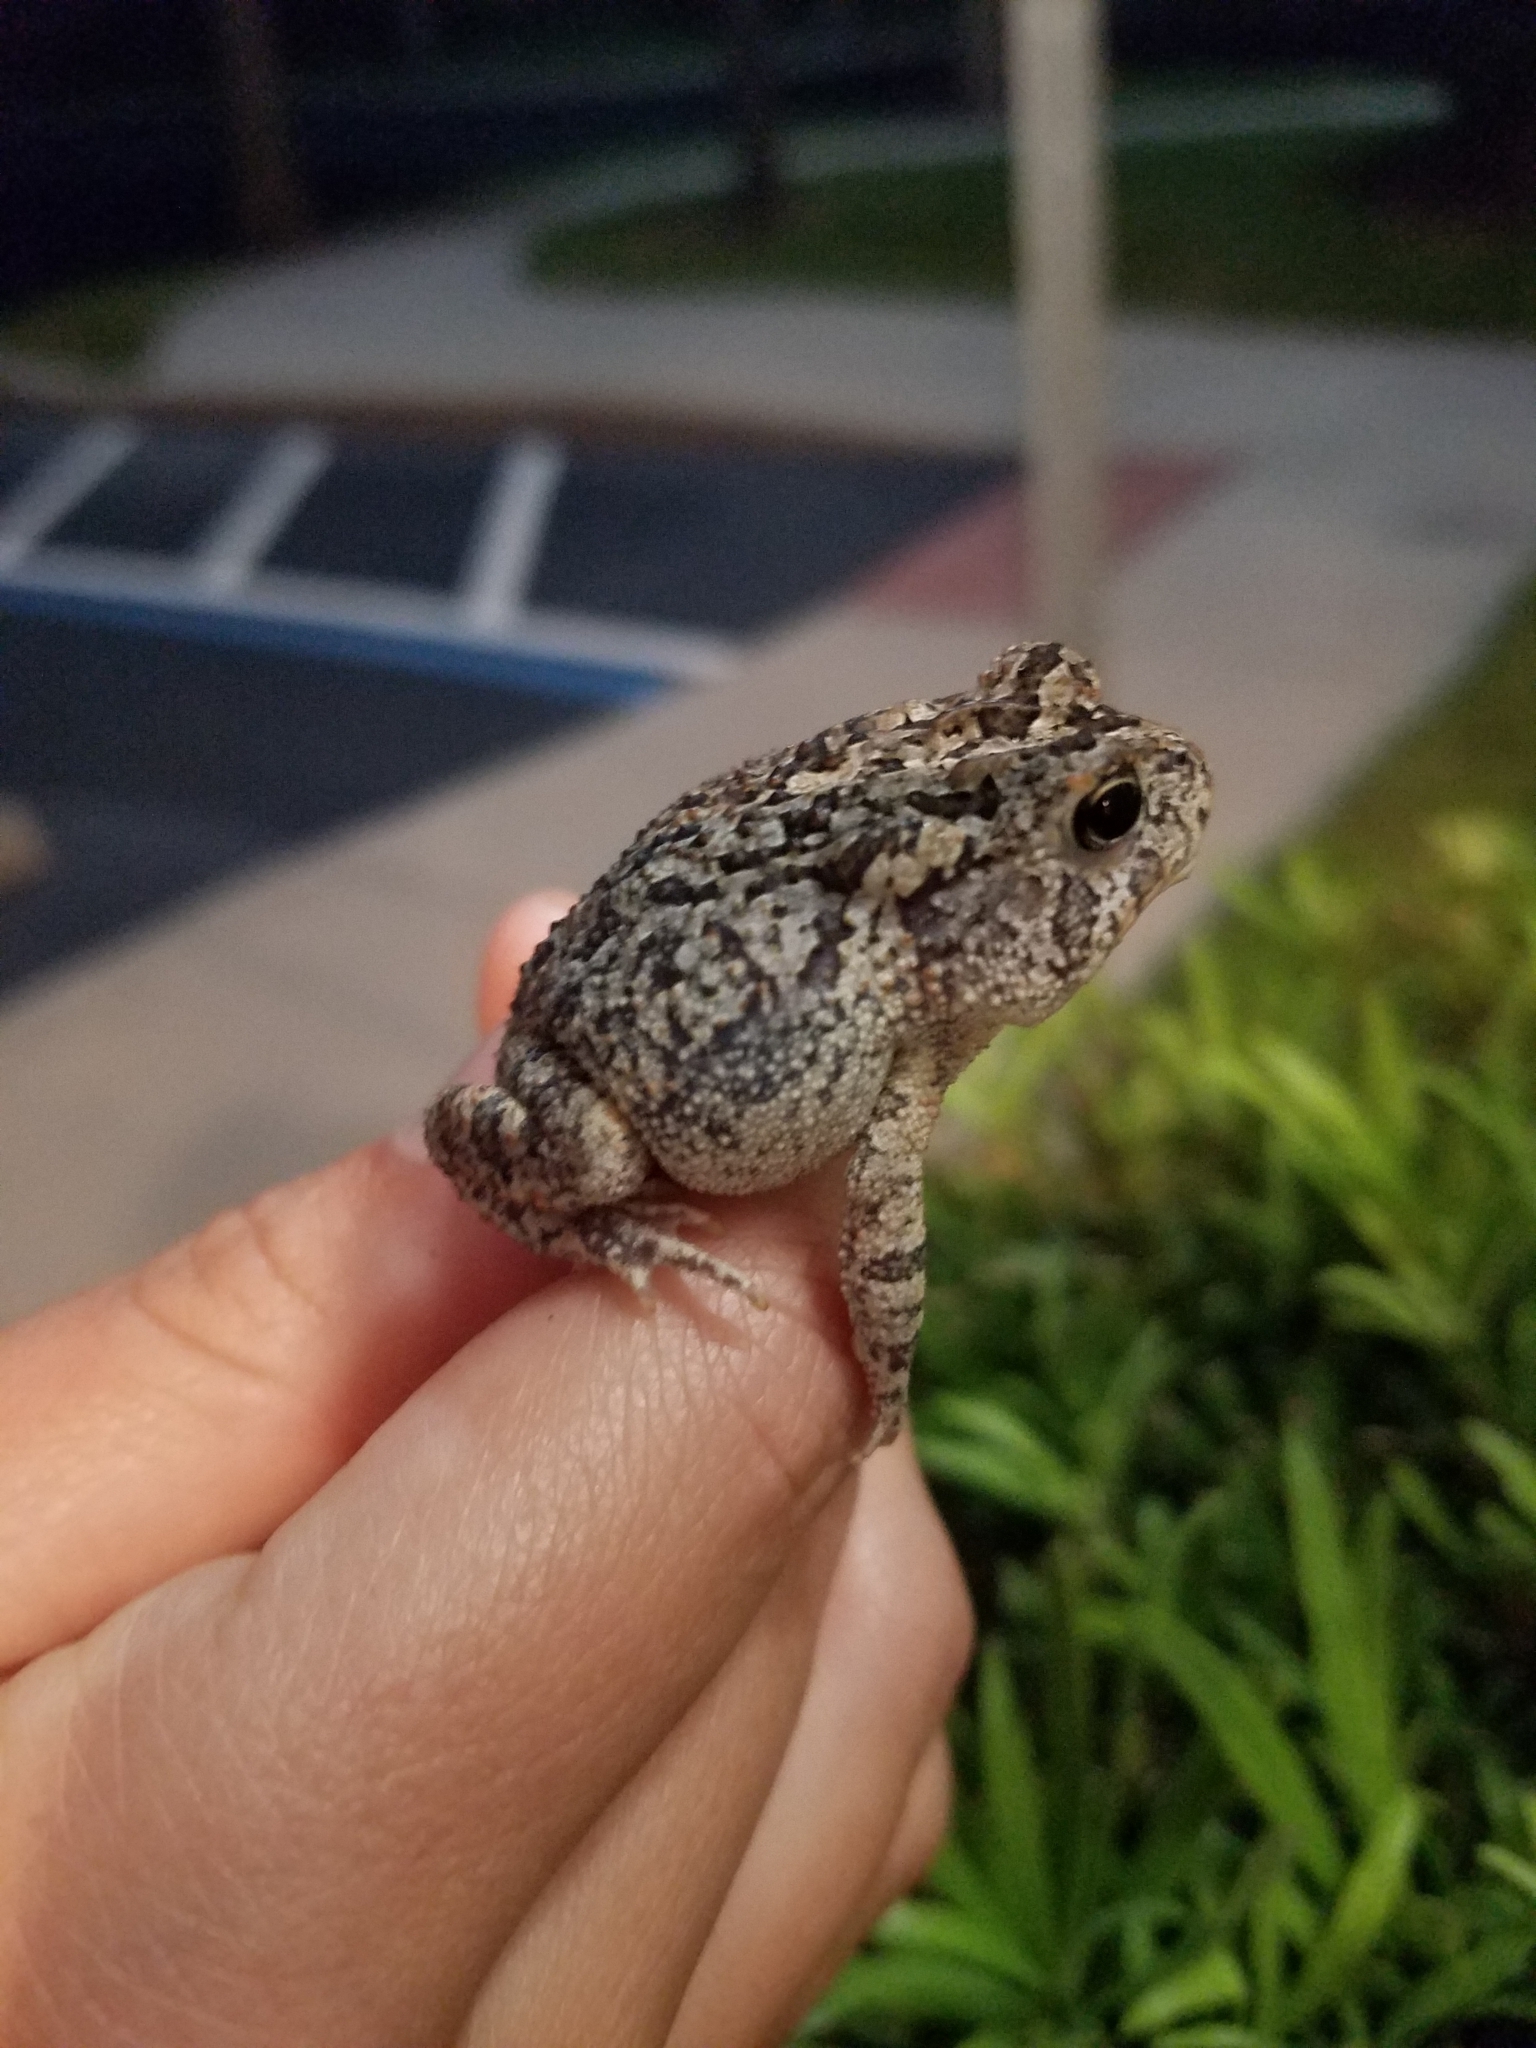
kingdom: Animalia
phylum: Chordata
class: Amphibia
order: Anura
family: Bufonidae
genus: Anaxyrus
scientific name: Anaxyrus terrestris
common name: Southern toad
